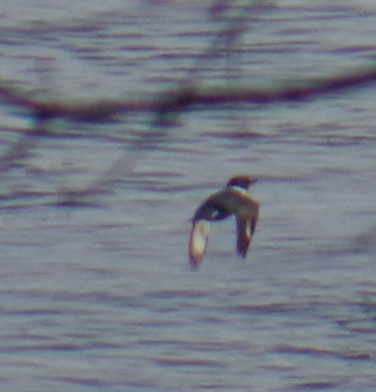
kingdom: Animalia
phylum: Chordata
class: Aves
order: Coraciiformes
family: Alcedinidae
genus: Megaceryle
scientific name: Megaceryle alcyon
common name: Belted kingfisher
